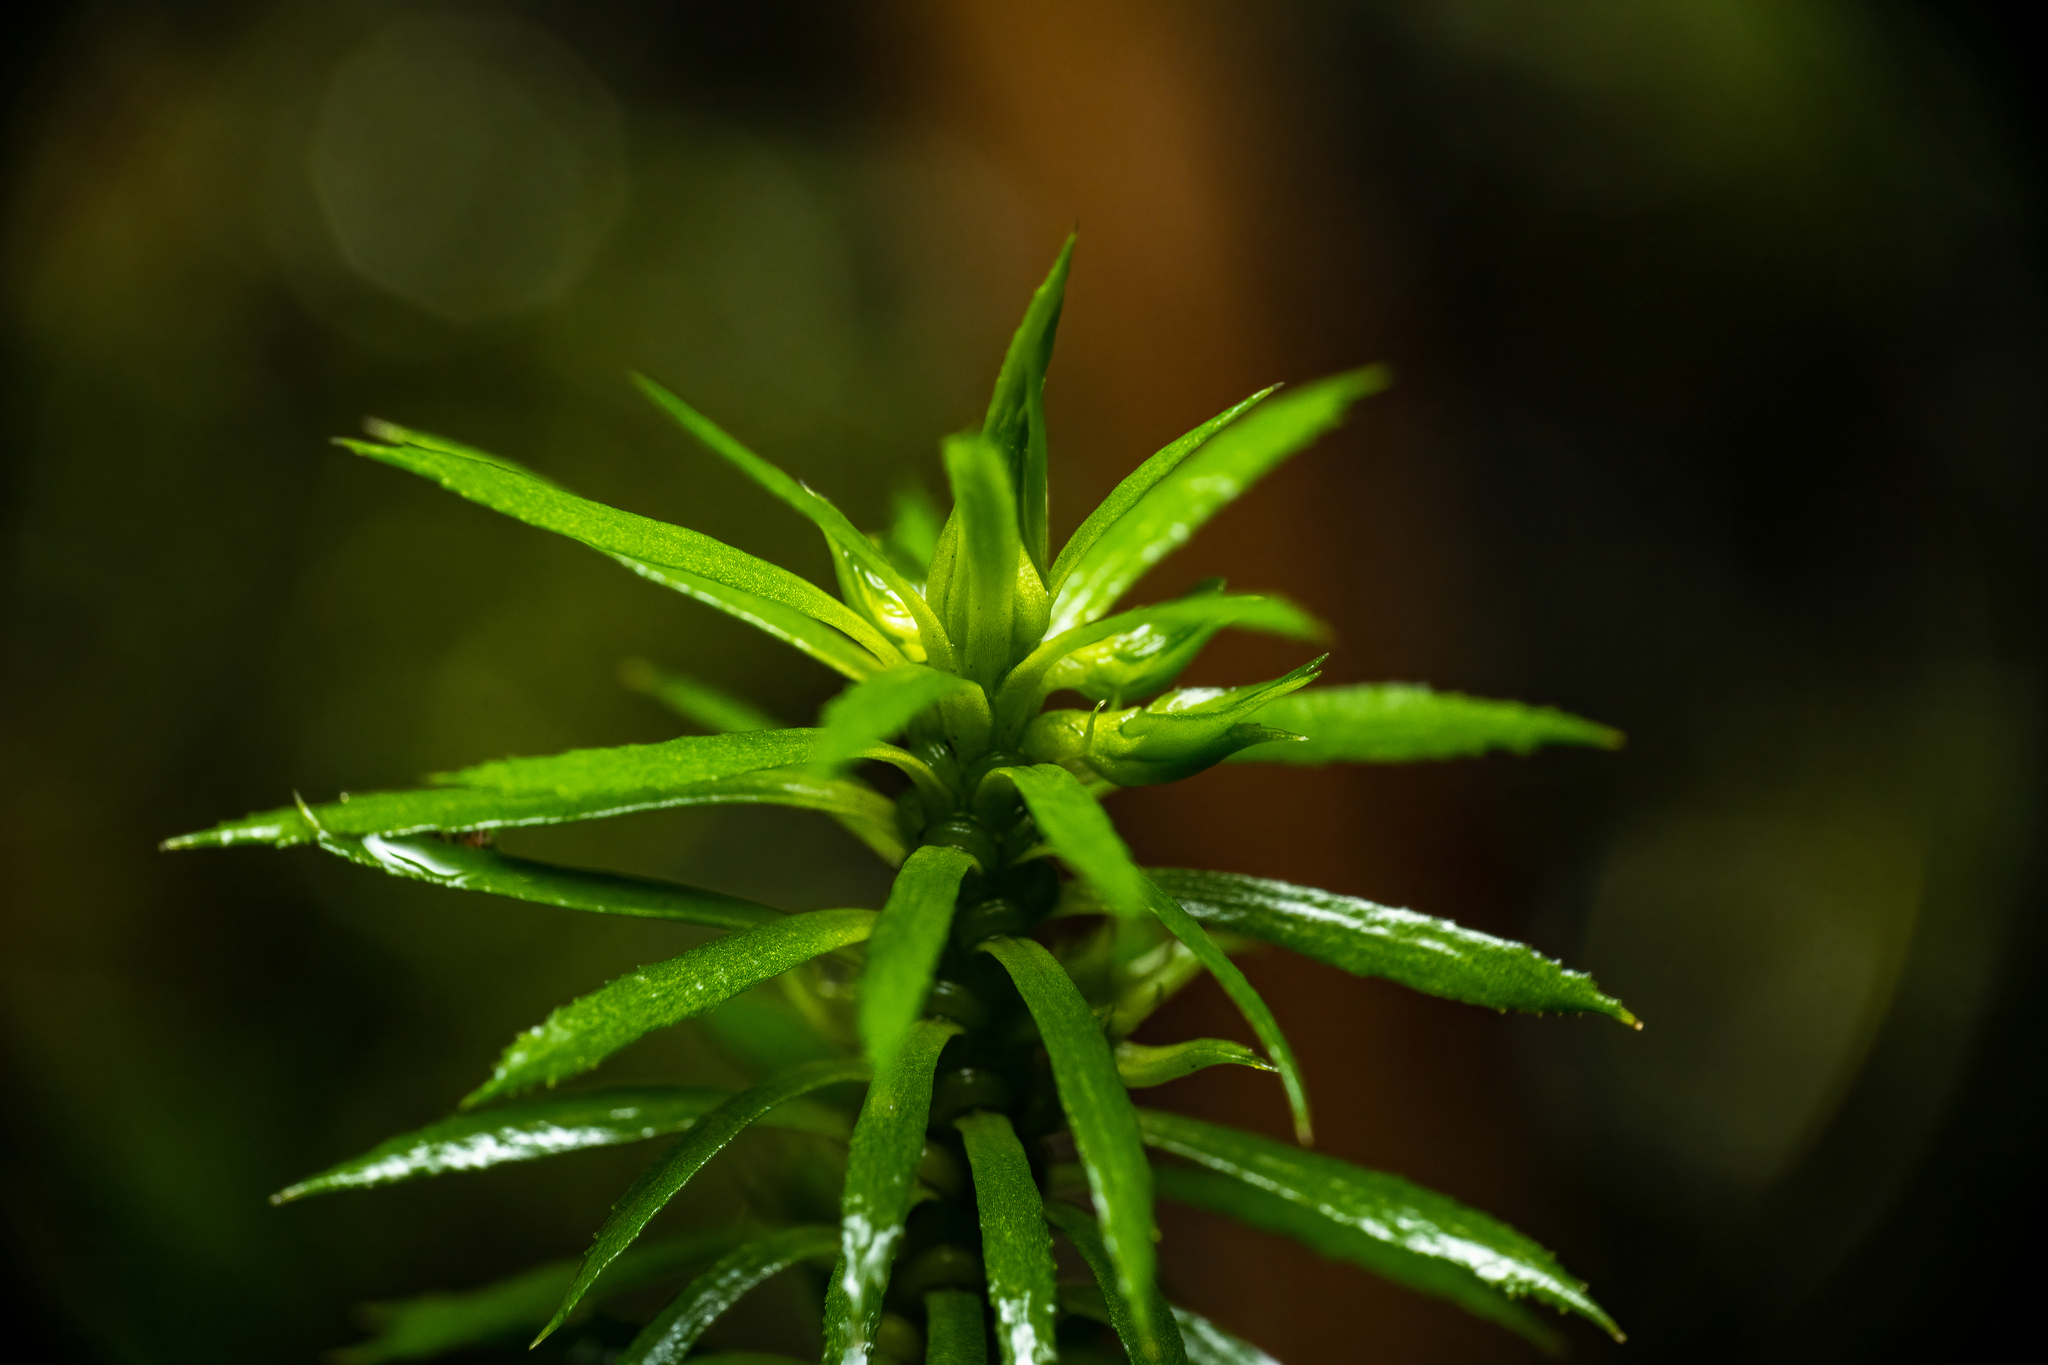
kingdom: Plantae
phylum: Tracheophyta
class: Lycopodiopsida
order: Lycopodiales
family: Lycopodiaceae
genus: Huperzia
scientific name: Huperzia javanica
